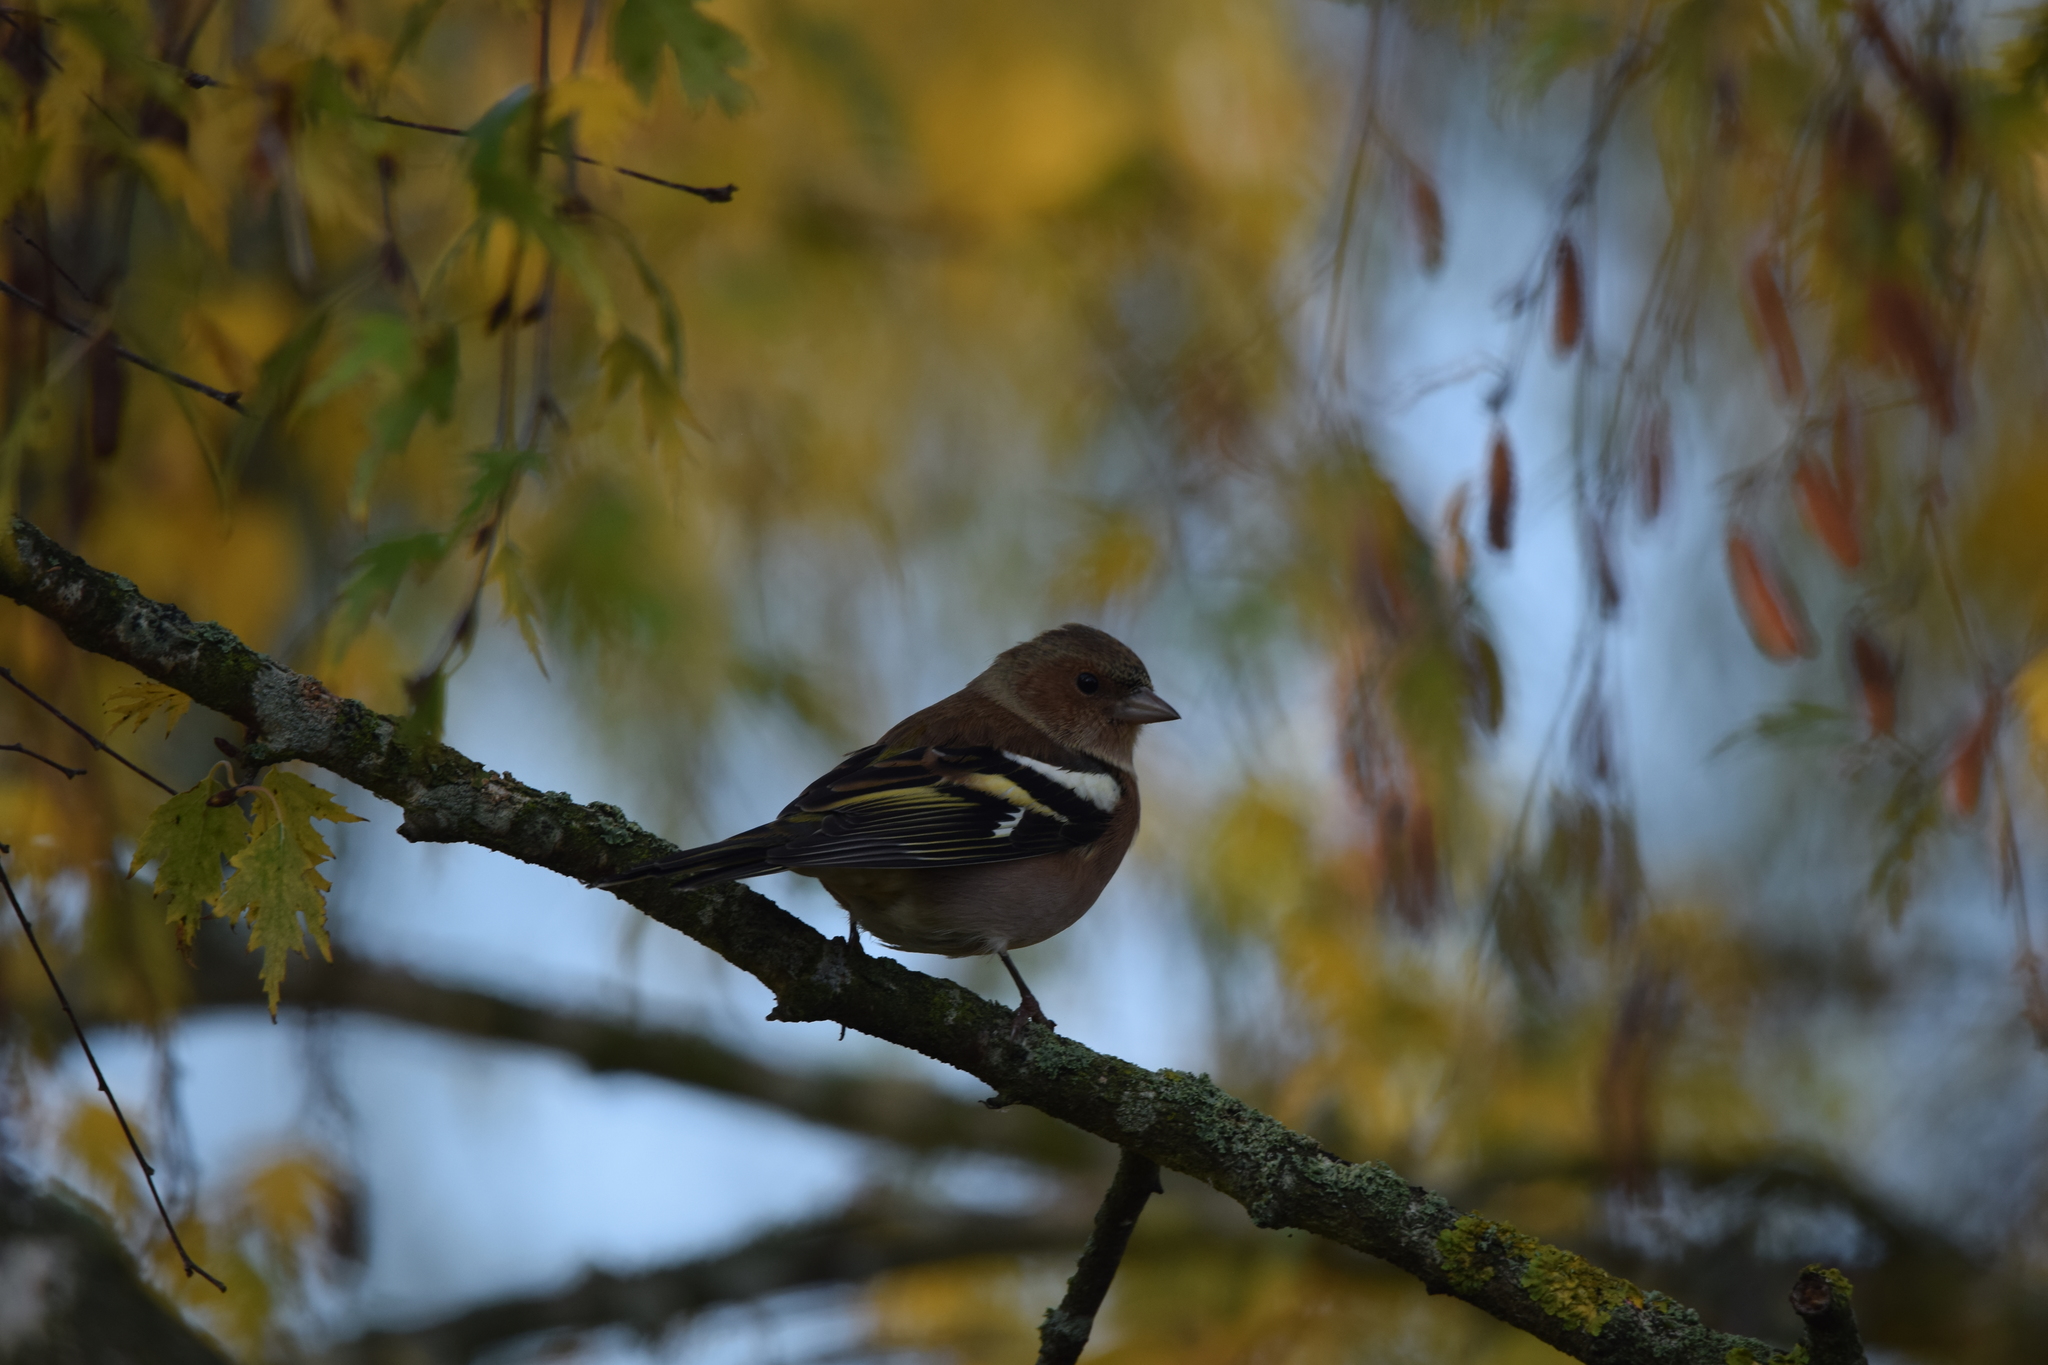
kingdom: Animalia
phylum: Chordata
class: Aves
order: Passeriformes
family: Fringillidae
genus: Fringilla
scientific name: Fringilla coelebs
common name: Common chaffinch
